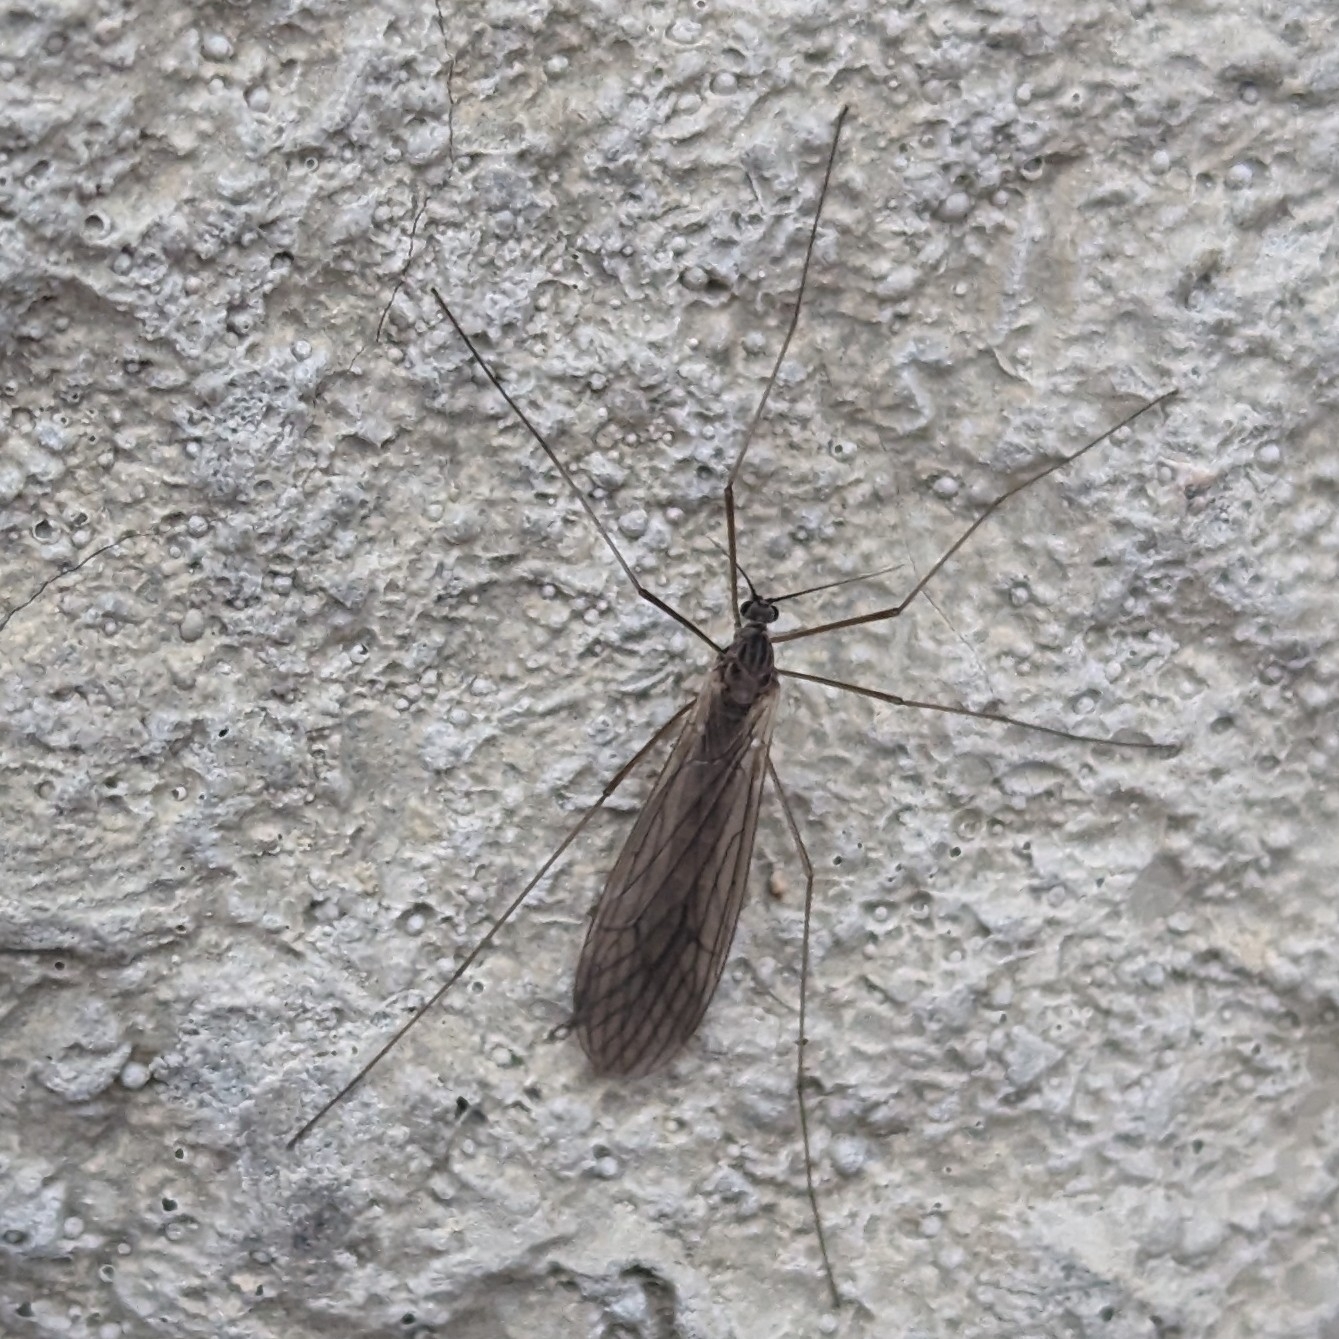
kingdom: Animalia
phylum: Arthropoda
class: Insecta
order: Diptera
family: Trichoceridae
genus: Trichocera
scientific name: Trichocera annulata
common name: Winter gnat
